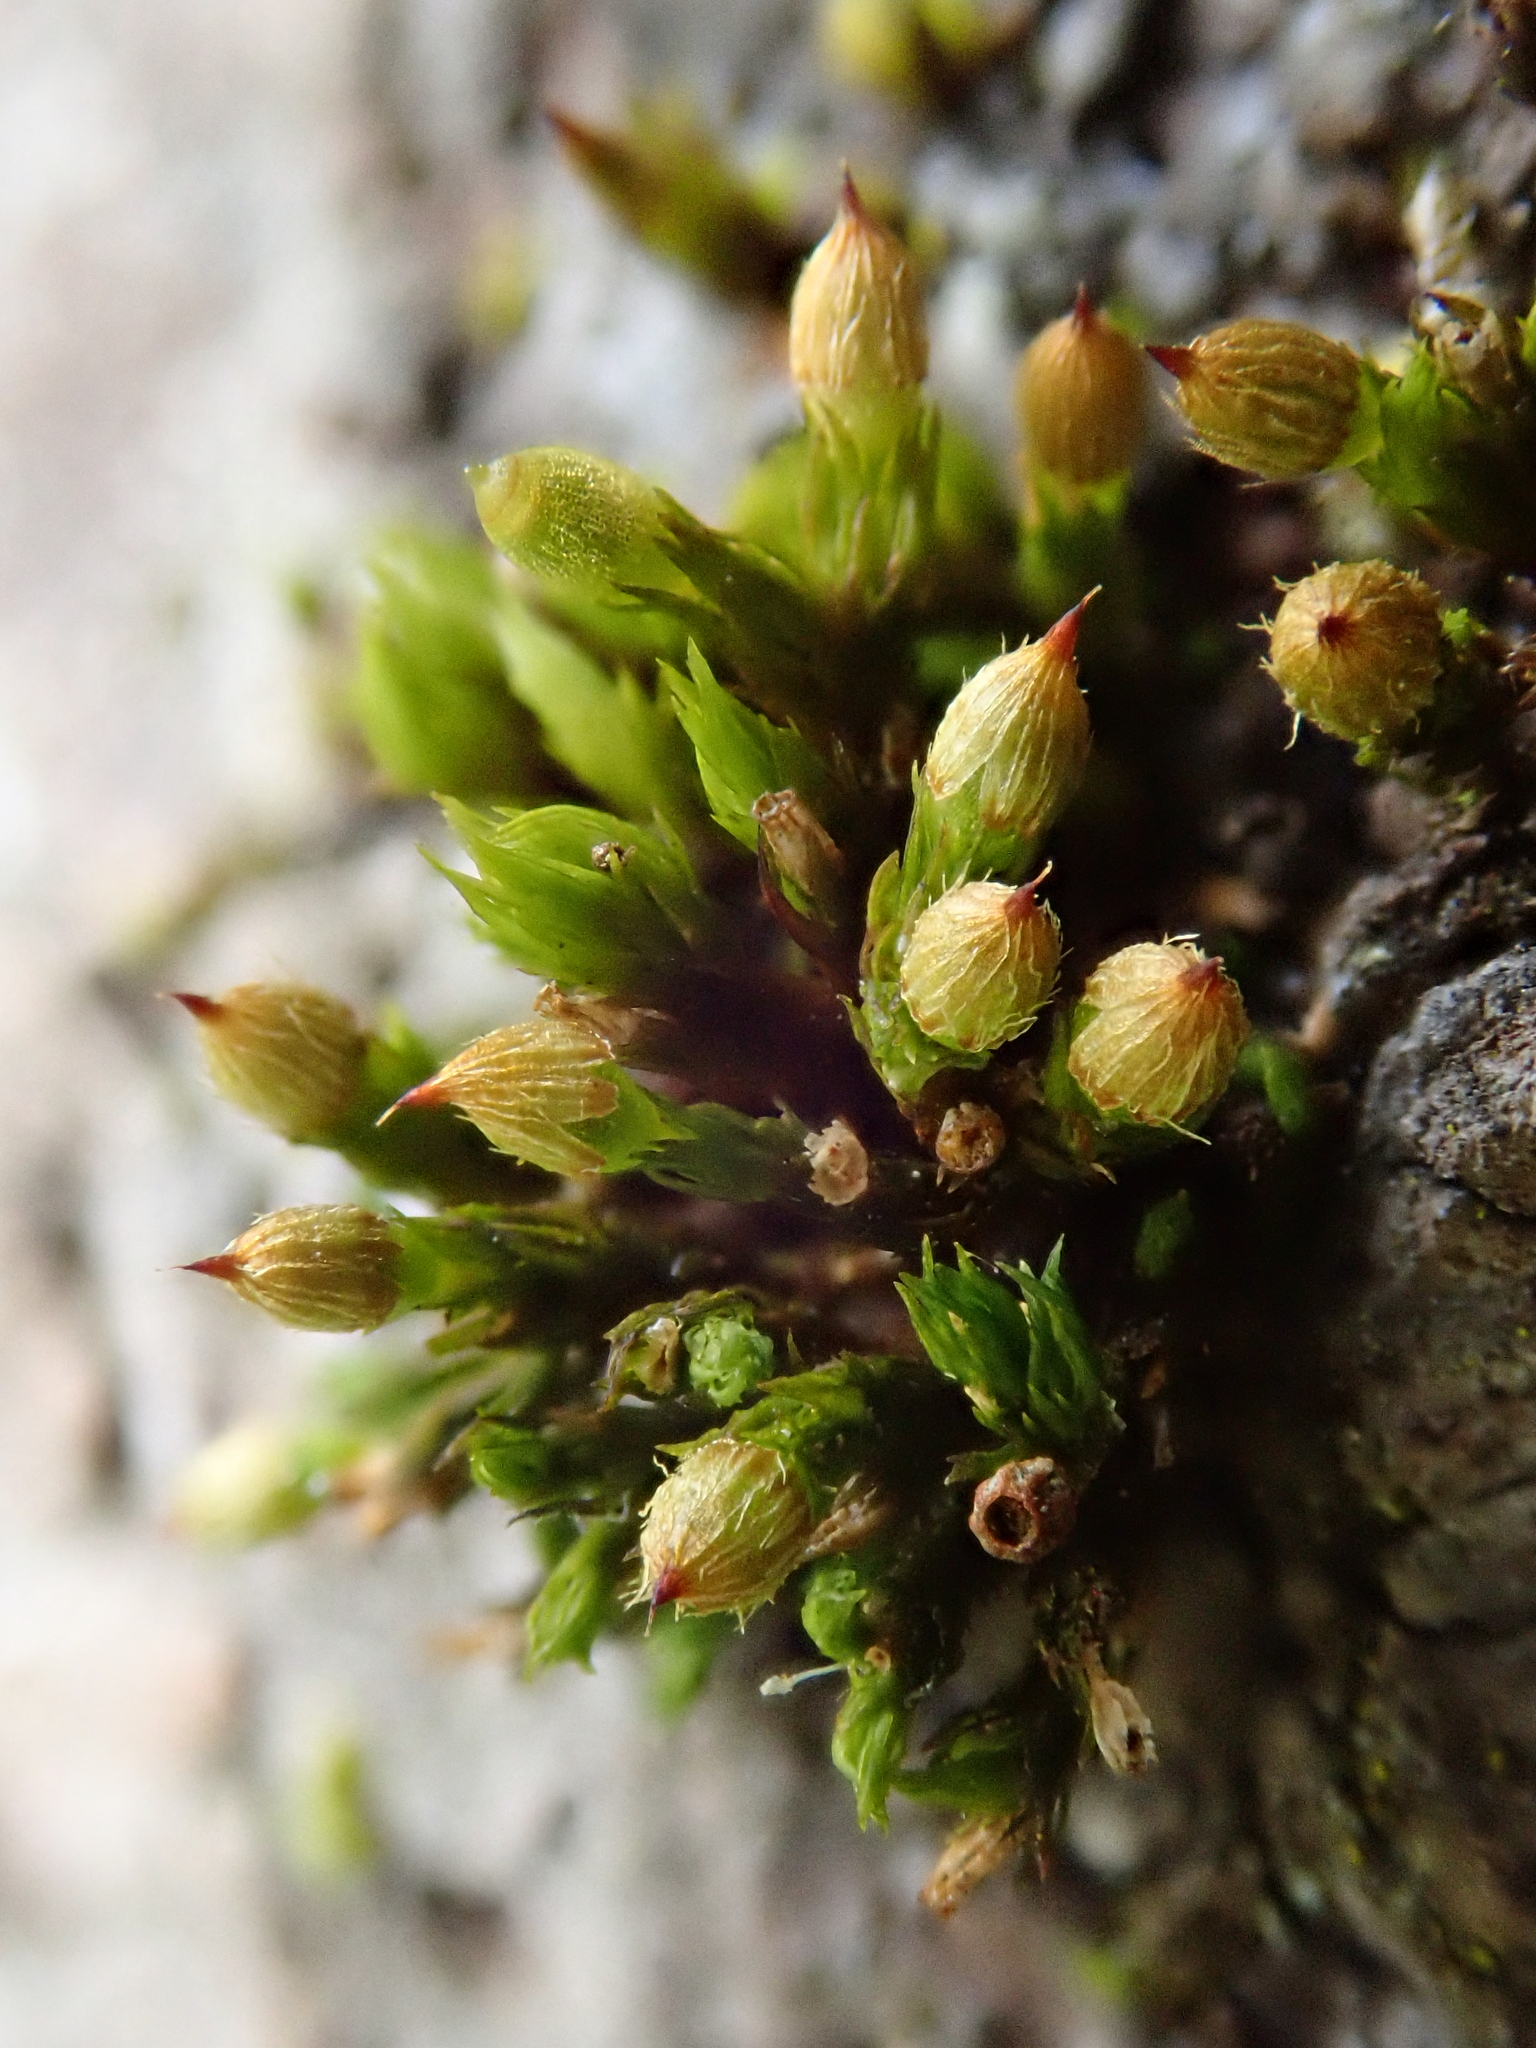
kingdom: Plantae
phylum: Bryophyta
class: Bryopsida
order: Orthotrichales
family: Orthotrichaceae
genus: Orthotrichum
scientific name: Orthotrichum patens
